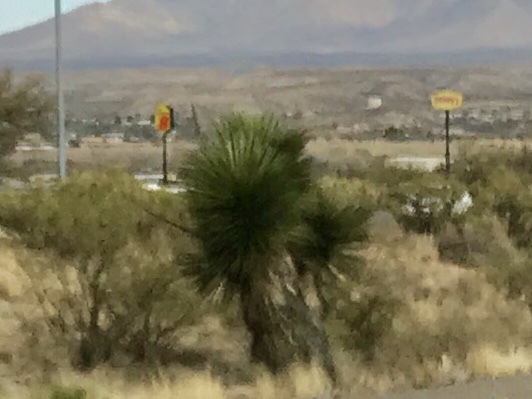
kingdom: Plantae
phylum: Tracheophyta
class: Liliopsida
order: Asparagales
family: Asparagaceae
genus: Yucca
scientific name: Yucca elata
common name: Palmella
